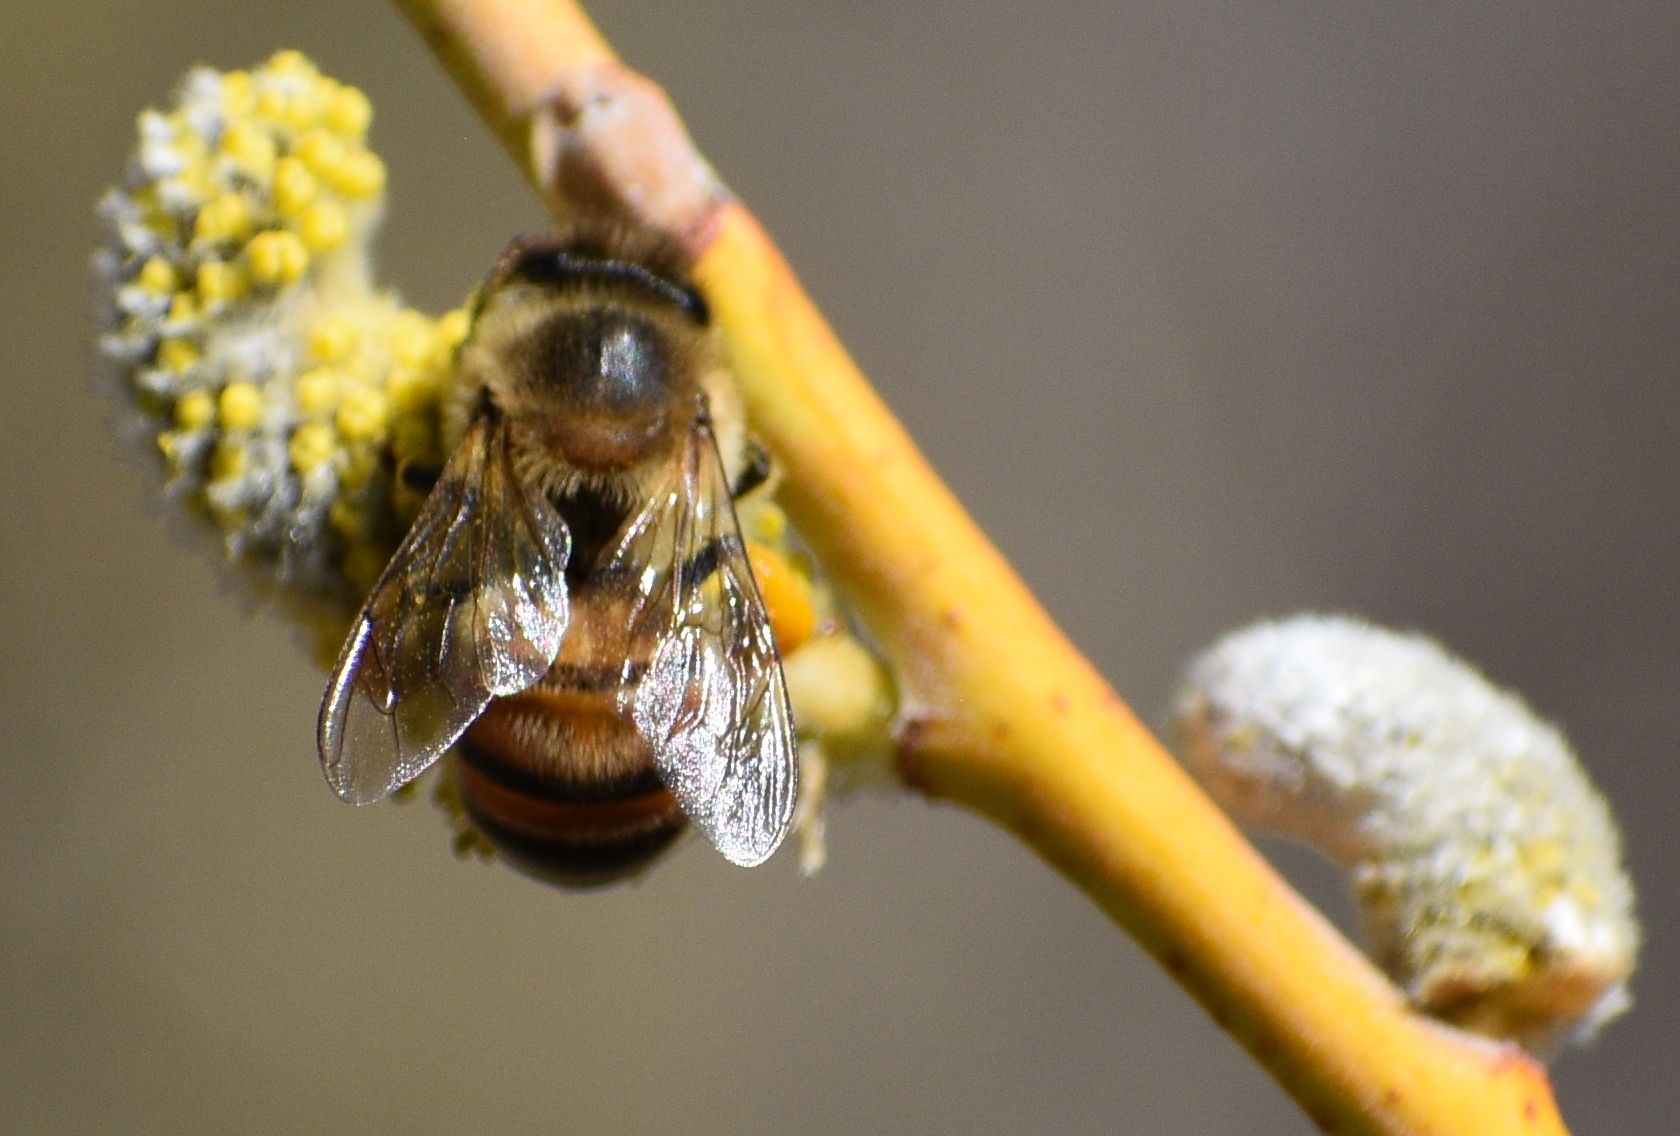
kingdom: Animalia
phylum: Arthropoda
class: Insecta
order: Hymenoptera
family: Apidae
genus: Apis
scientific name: Apis mellifera
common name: Honey bee
